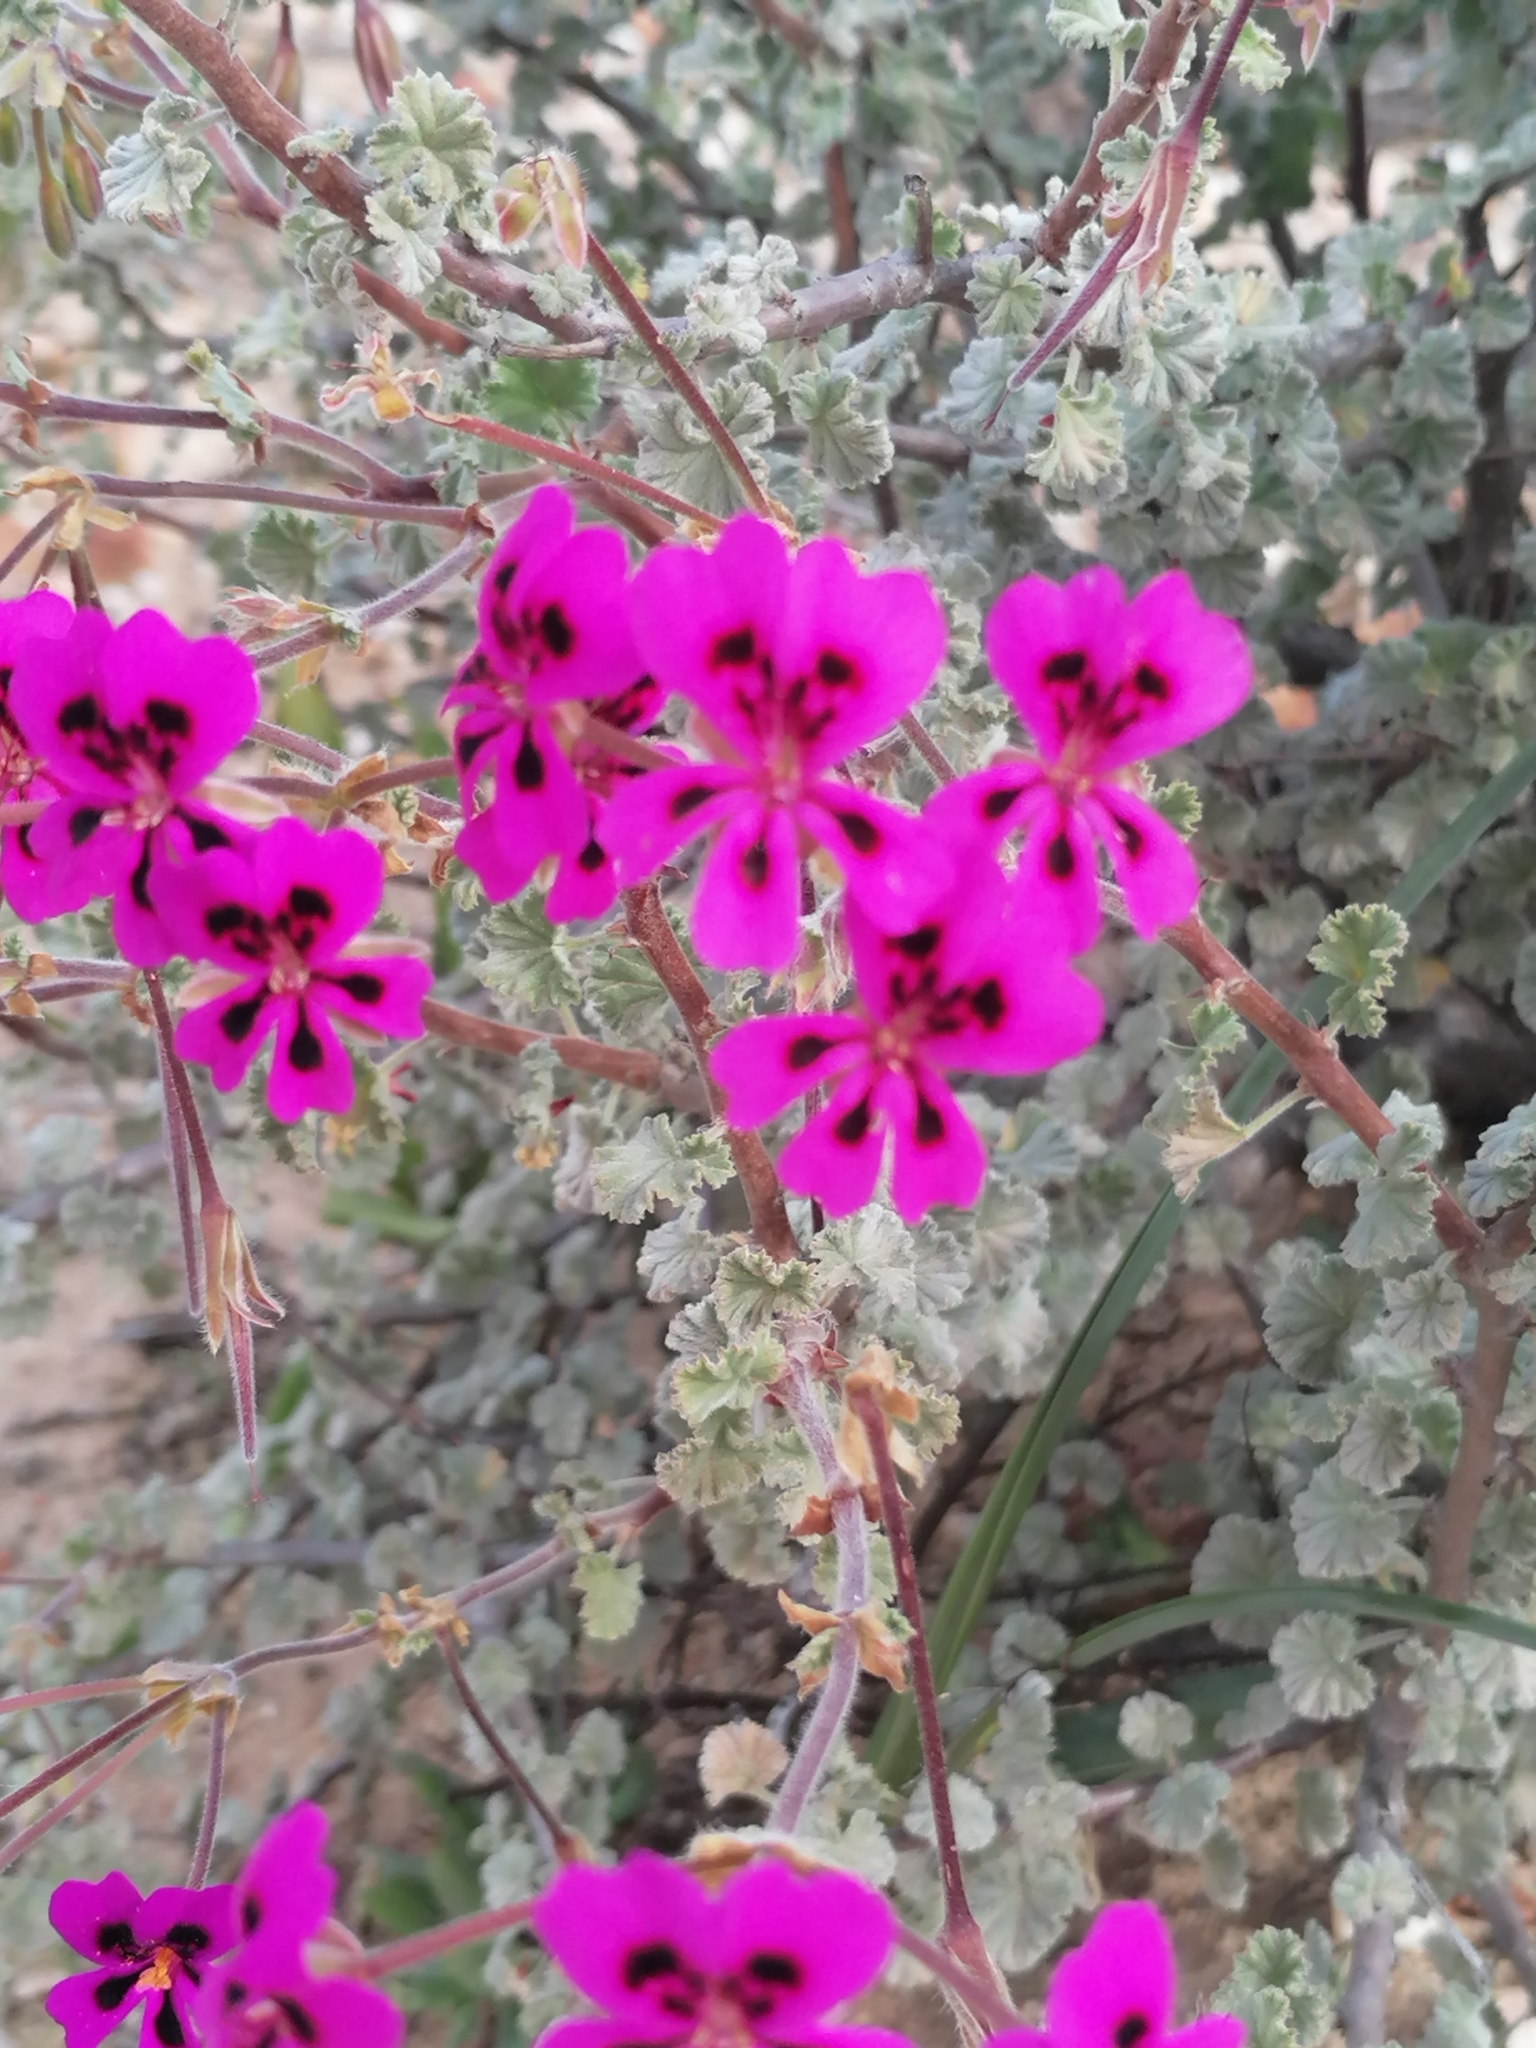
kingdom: Plantae
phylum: Tracheophyta
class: Magnoliopsida
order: Geraniales
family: Geraniaceae
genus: Pelargonium
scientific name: Pelargonium magenteum
